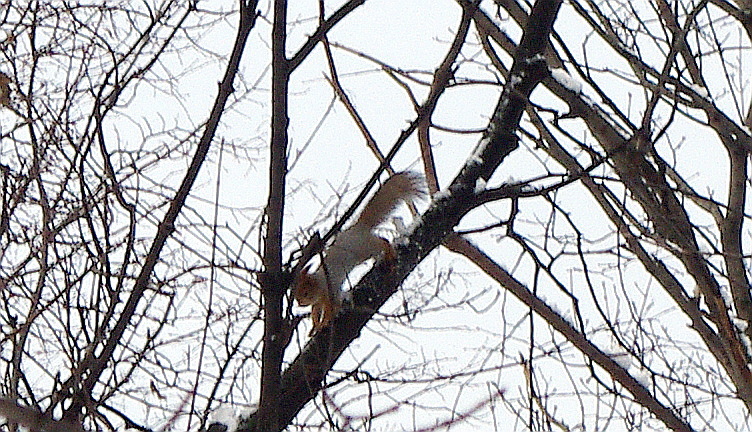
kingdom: Animalia
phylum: Chordata
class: Mammalia
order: Rodentia
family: Sciuridae
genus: Sciurus
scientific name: Sciurus vulgaris
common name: Eurasian red squirrel
